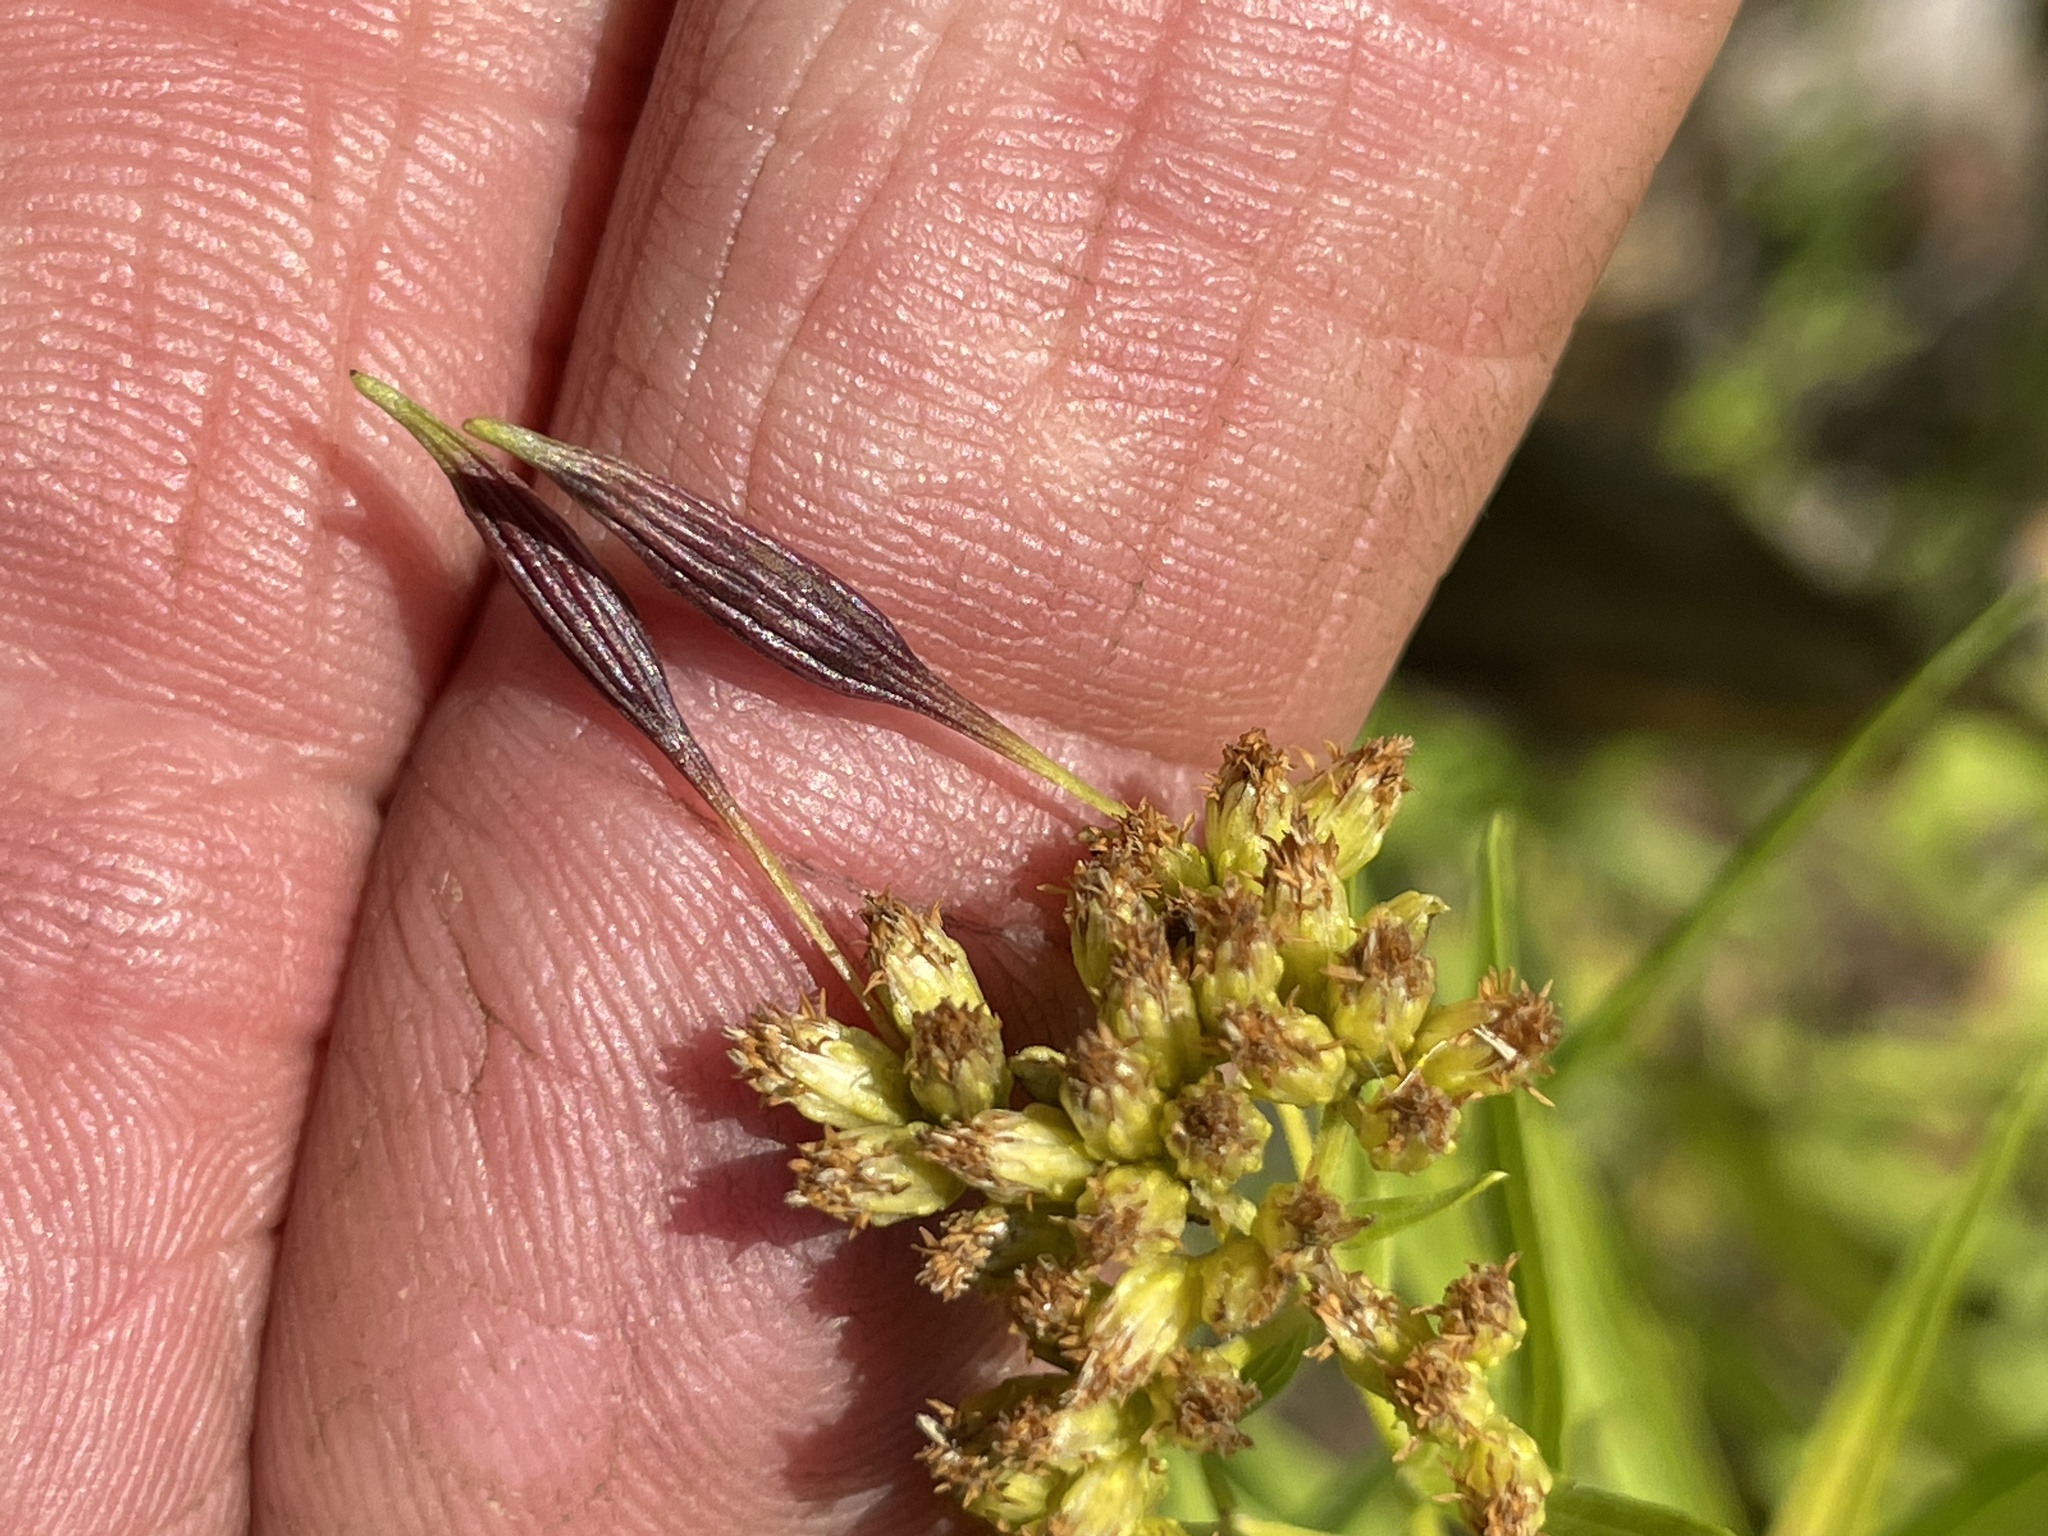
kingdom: Animalia
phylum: Arthropoda
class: Insecta
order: Diptera
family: Cecidomyiidae
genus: Rhopalomyia
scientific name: Rhopalomyia pedicellata
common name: Goldentop pedicellate gall midge
